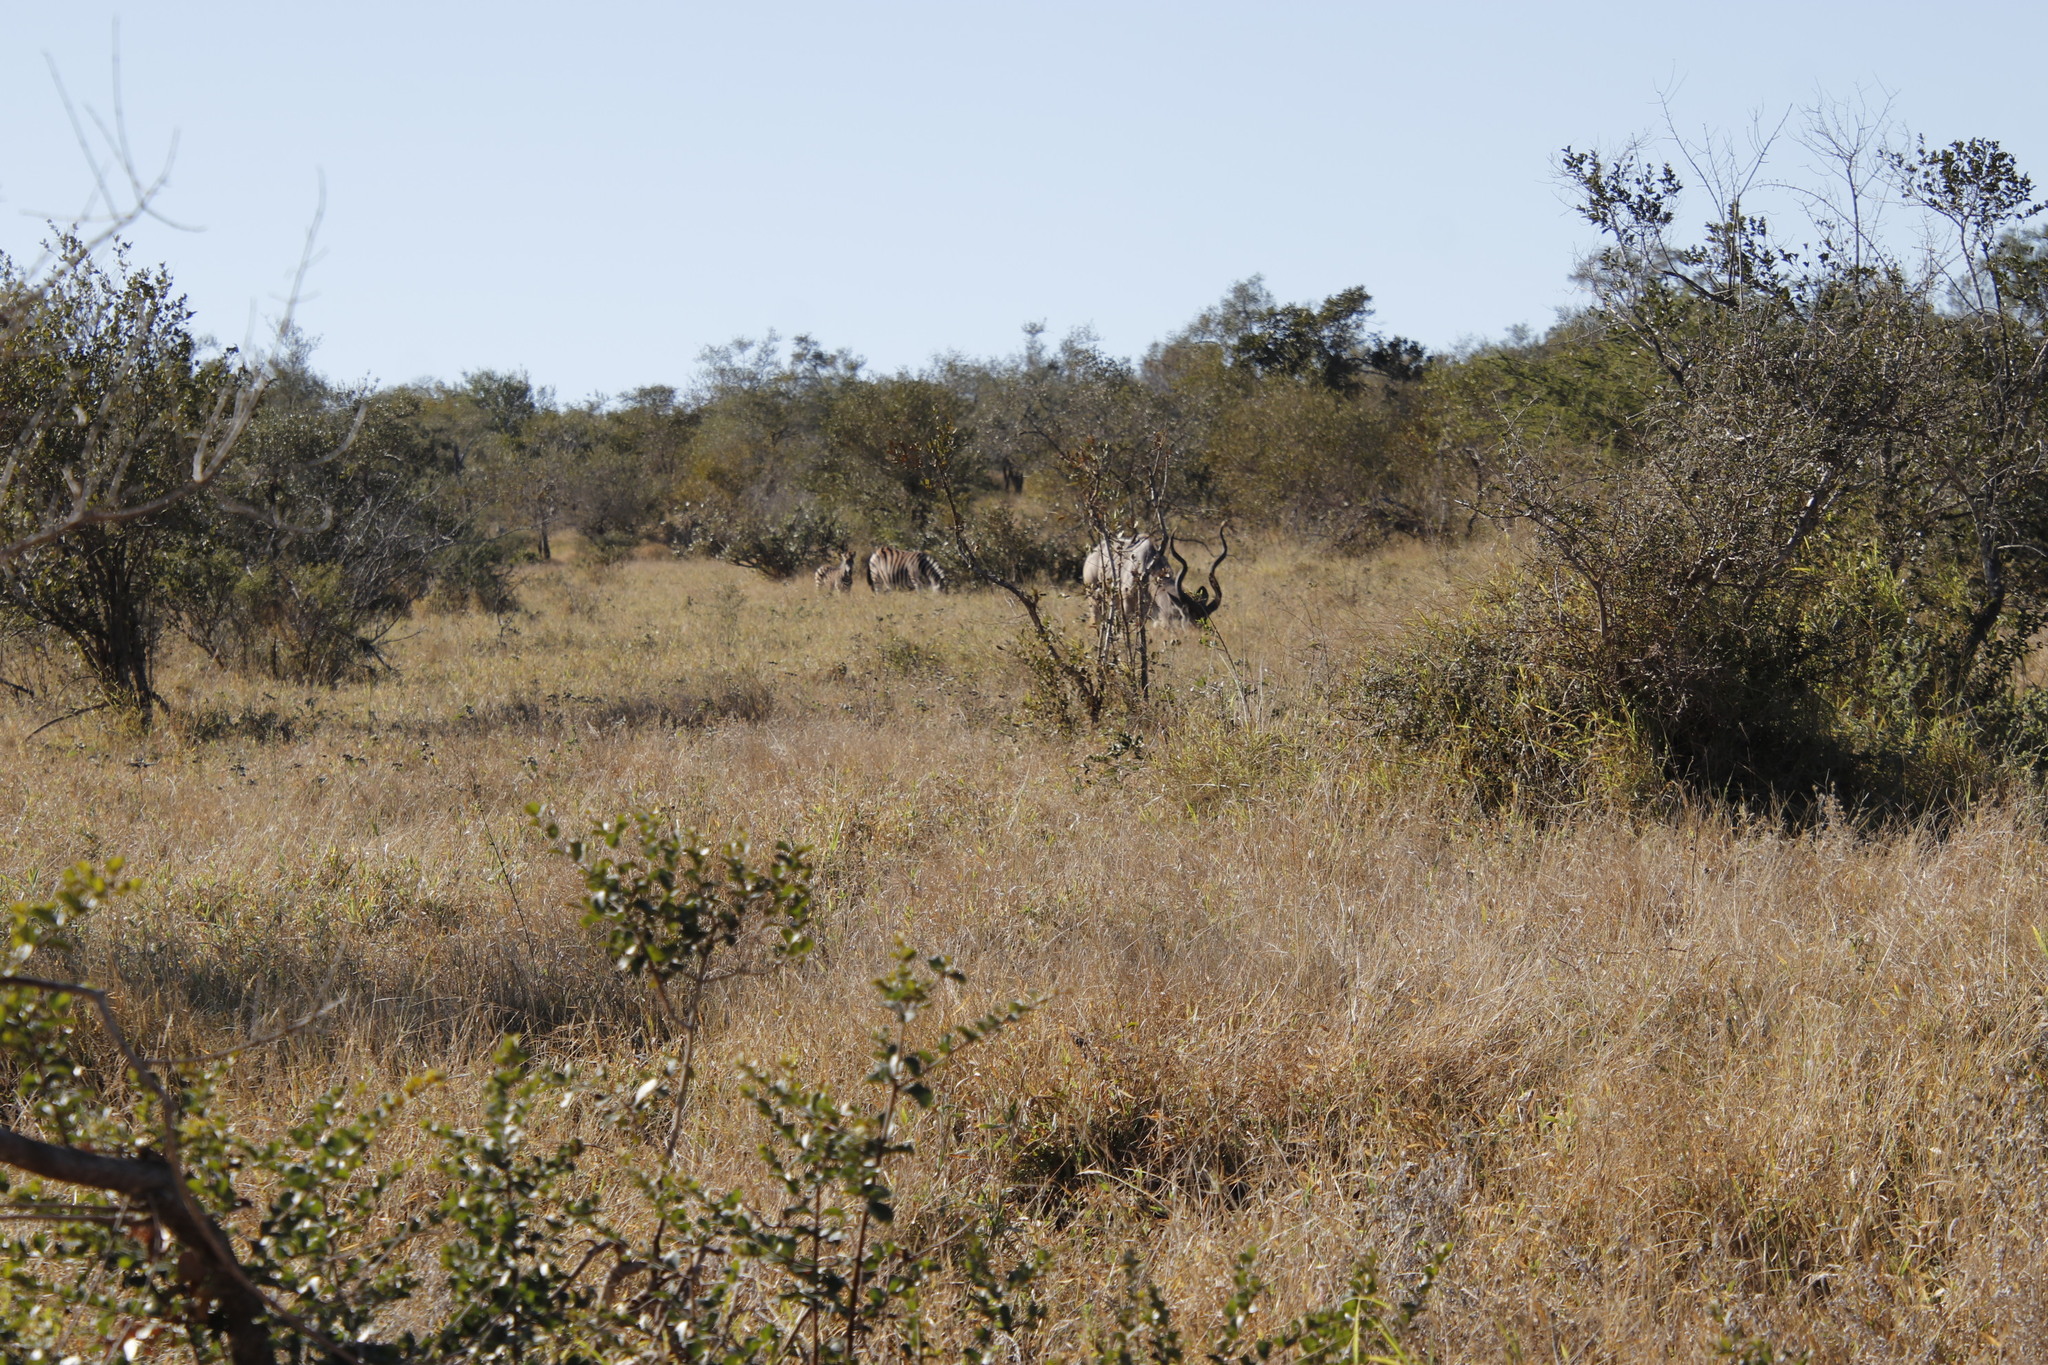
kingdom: Animalia
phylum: Chordata
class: Mammalia
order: Perissodactyla
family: Equidae
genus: Equus
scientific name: Equus quagga
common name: Plains zebra
